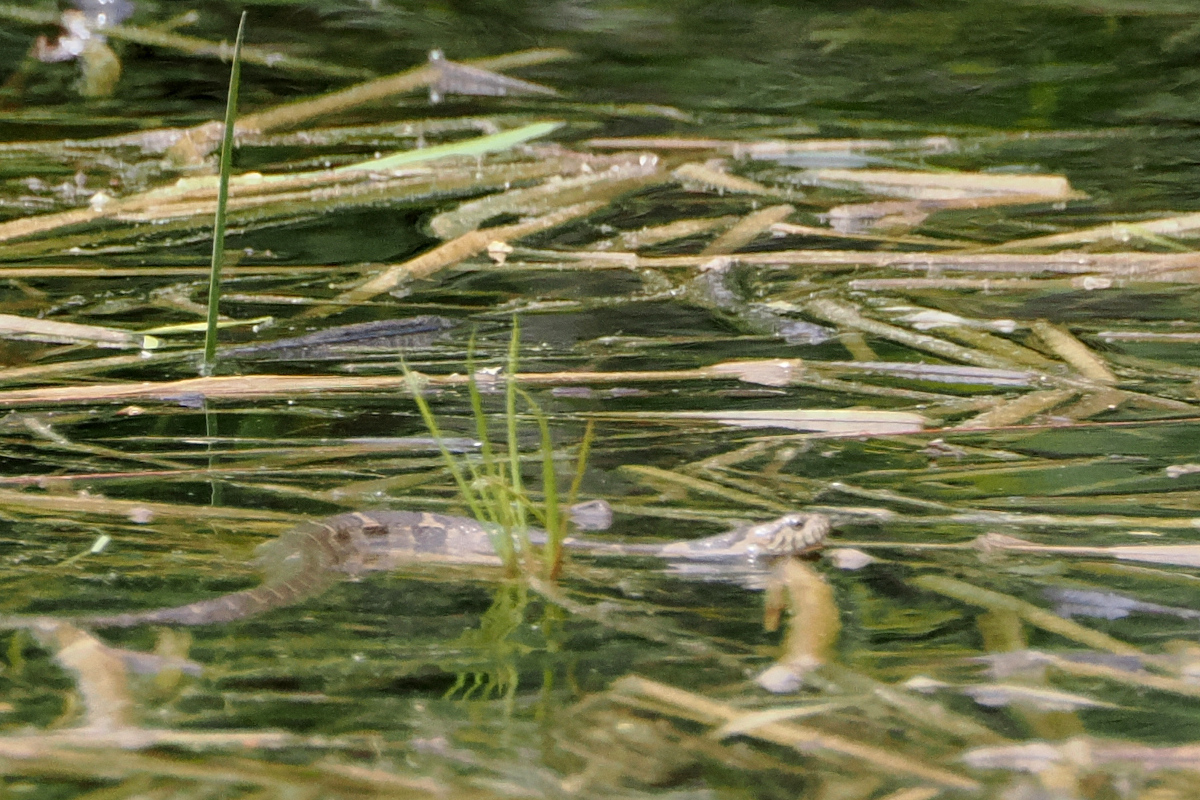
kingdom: Animalia
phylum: Chordata
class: Squamata
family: Colubridae
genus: Nerodia
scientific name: Nerodia sipedon
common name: Northern water snake
